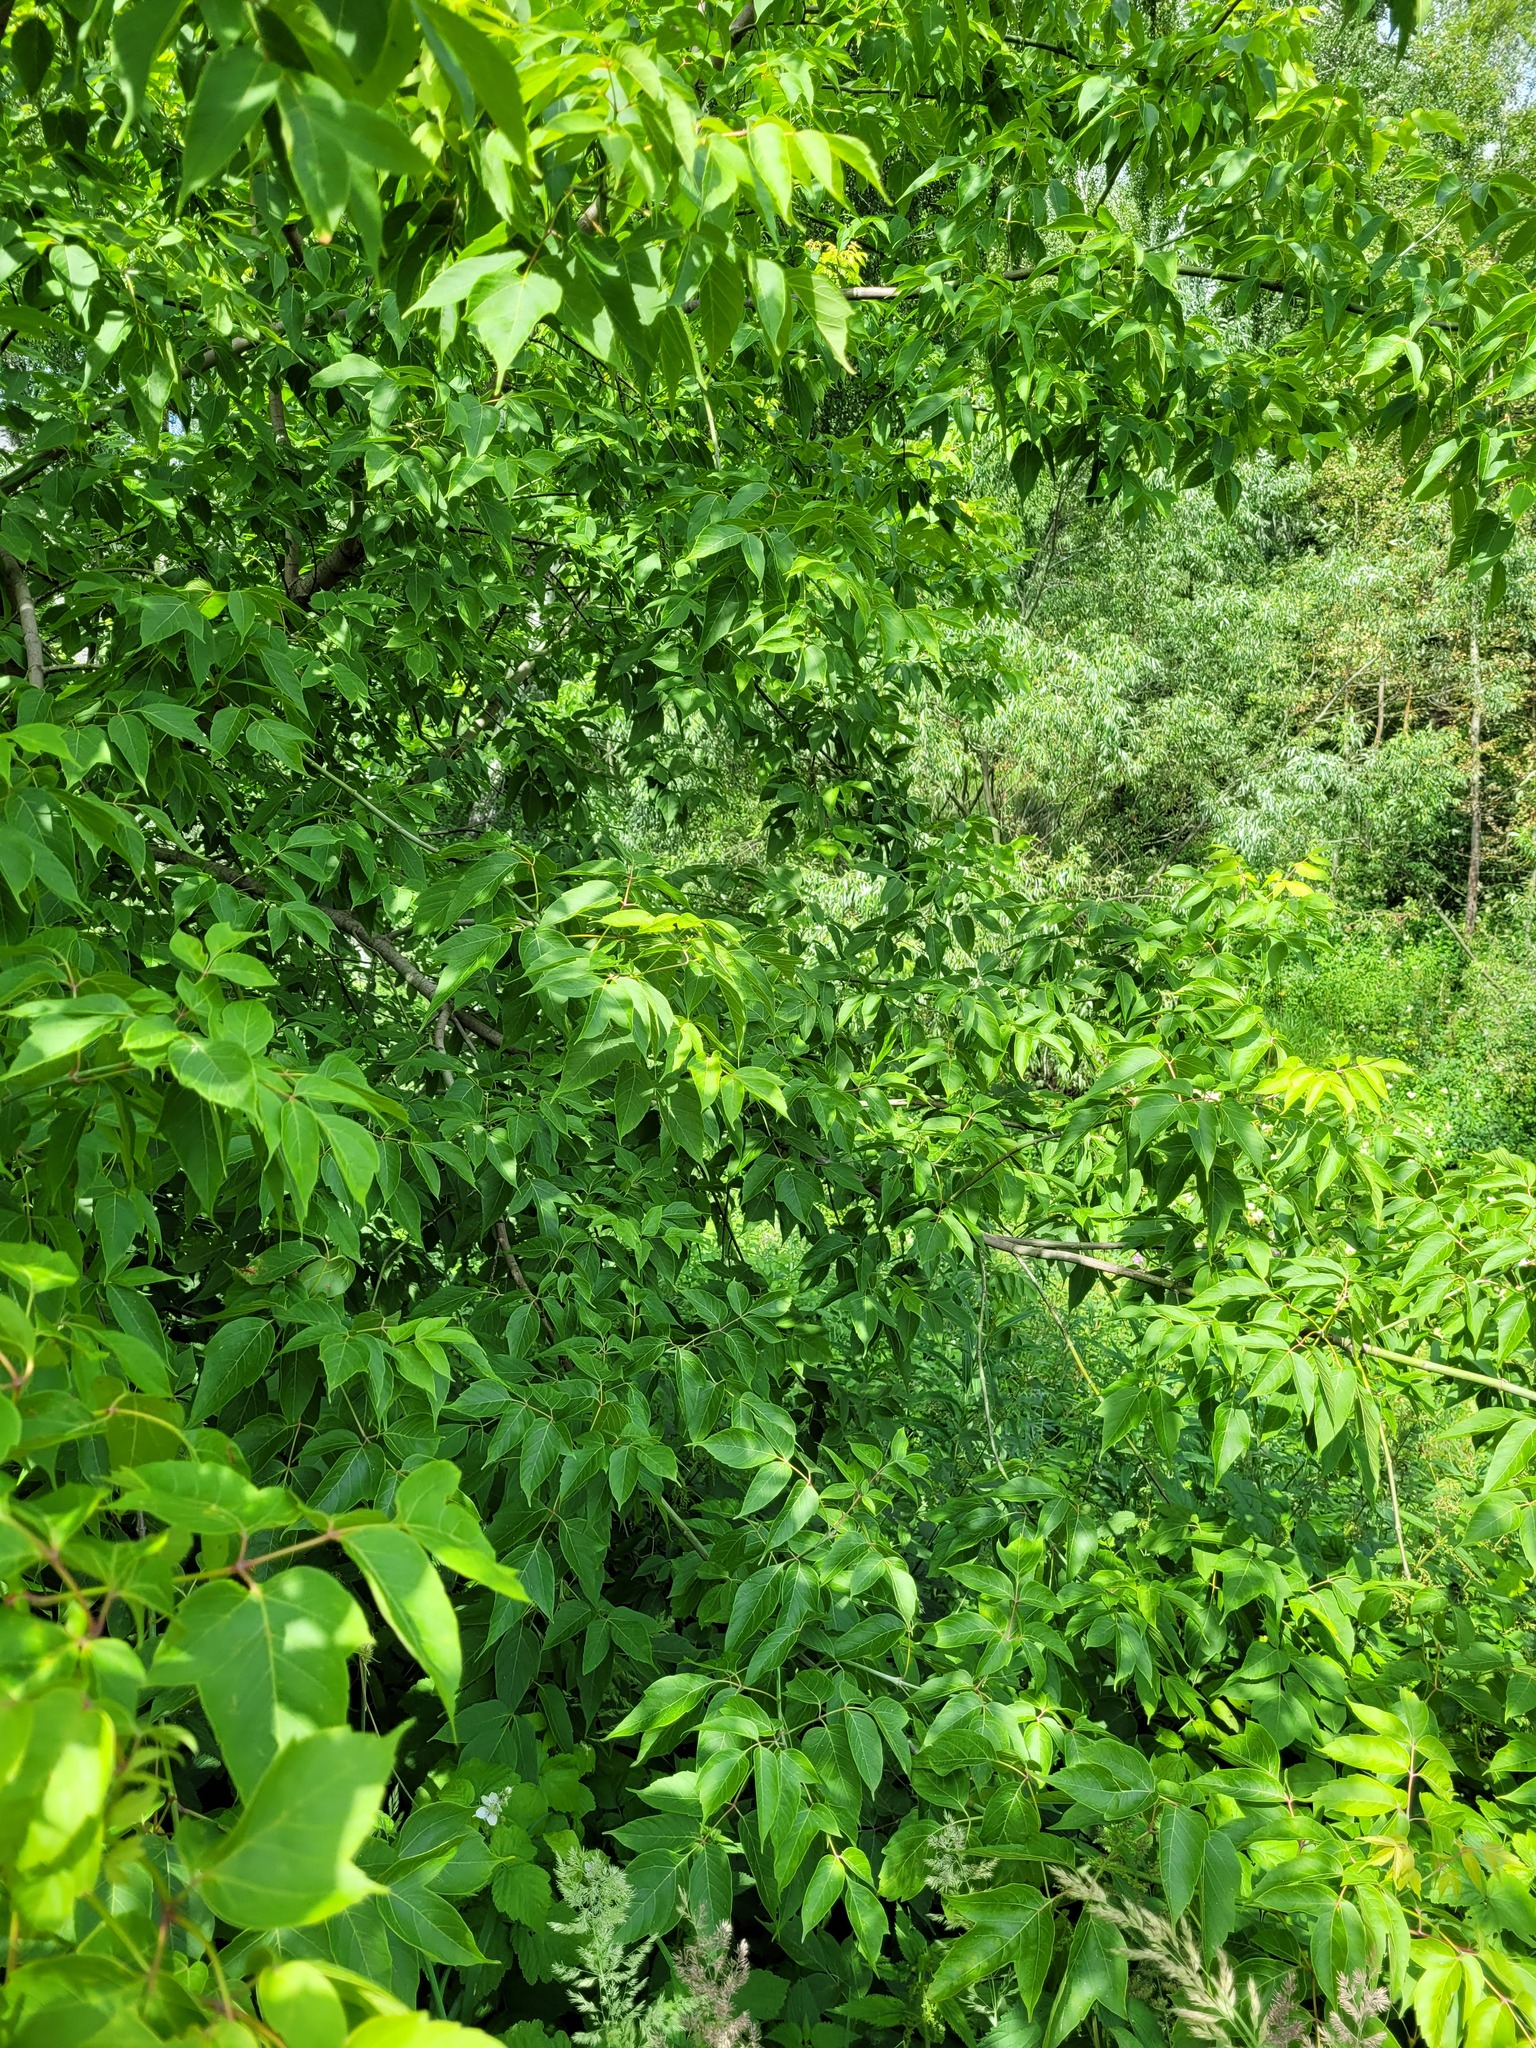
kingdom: Plantae
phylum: Tracheophyta
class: Magnoliopsida
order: Sapindales
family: Sapindaceae
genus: Acer
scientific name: Acer negundo
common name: Ashleaf maple
